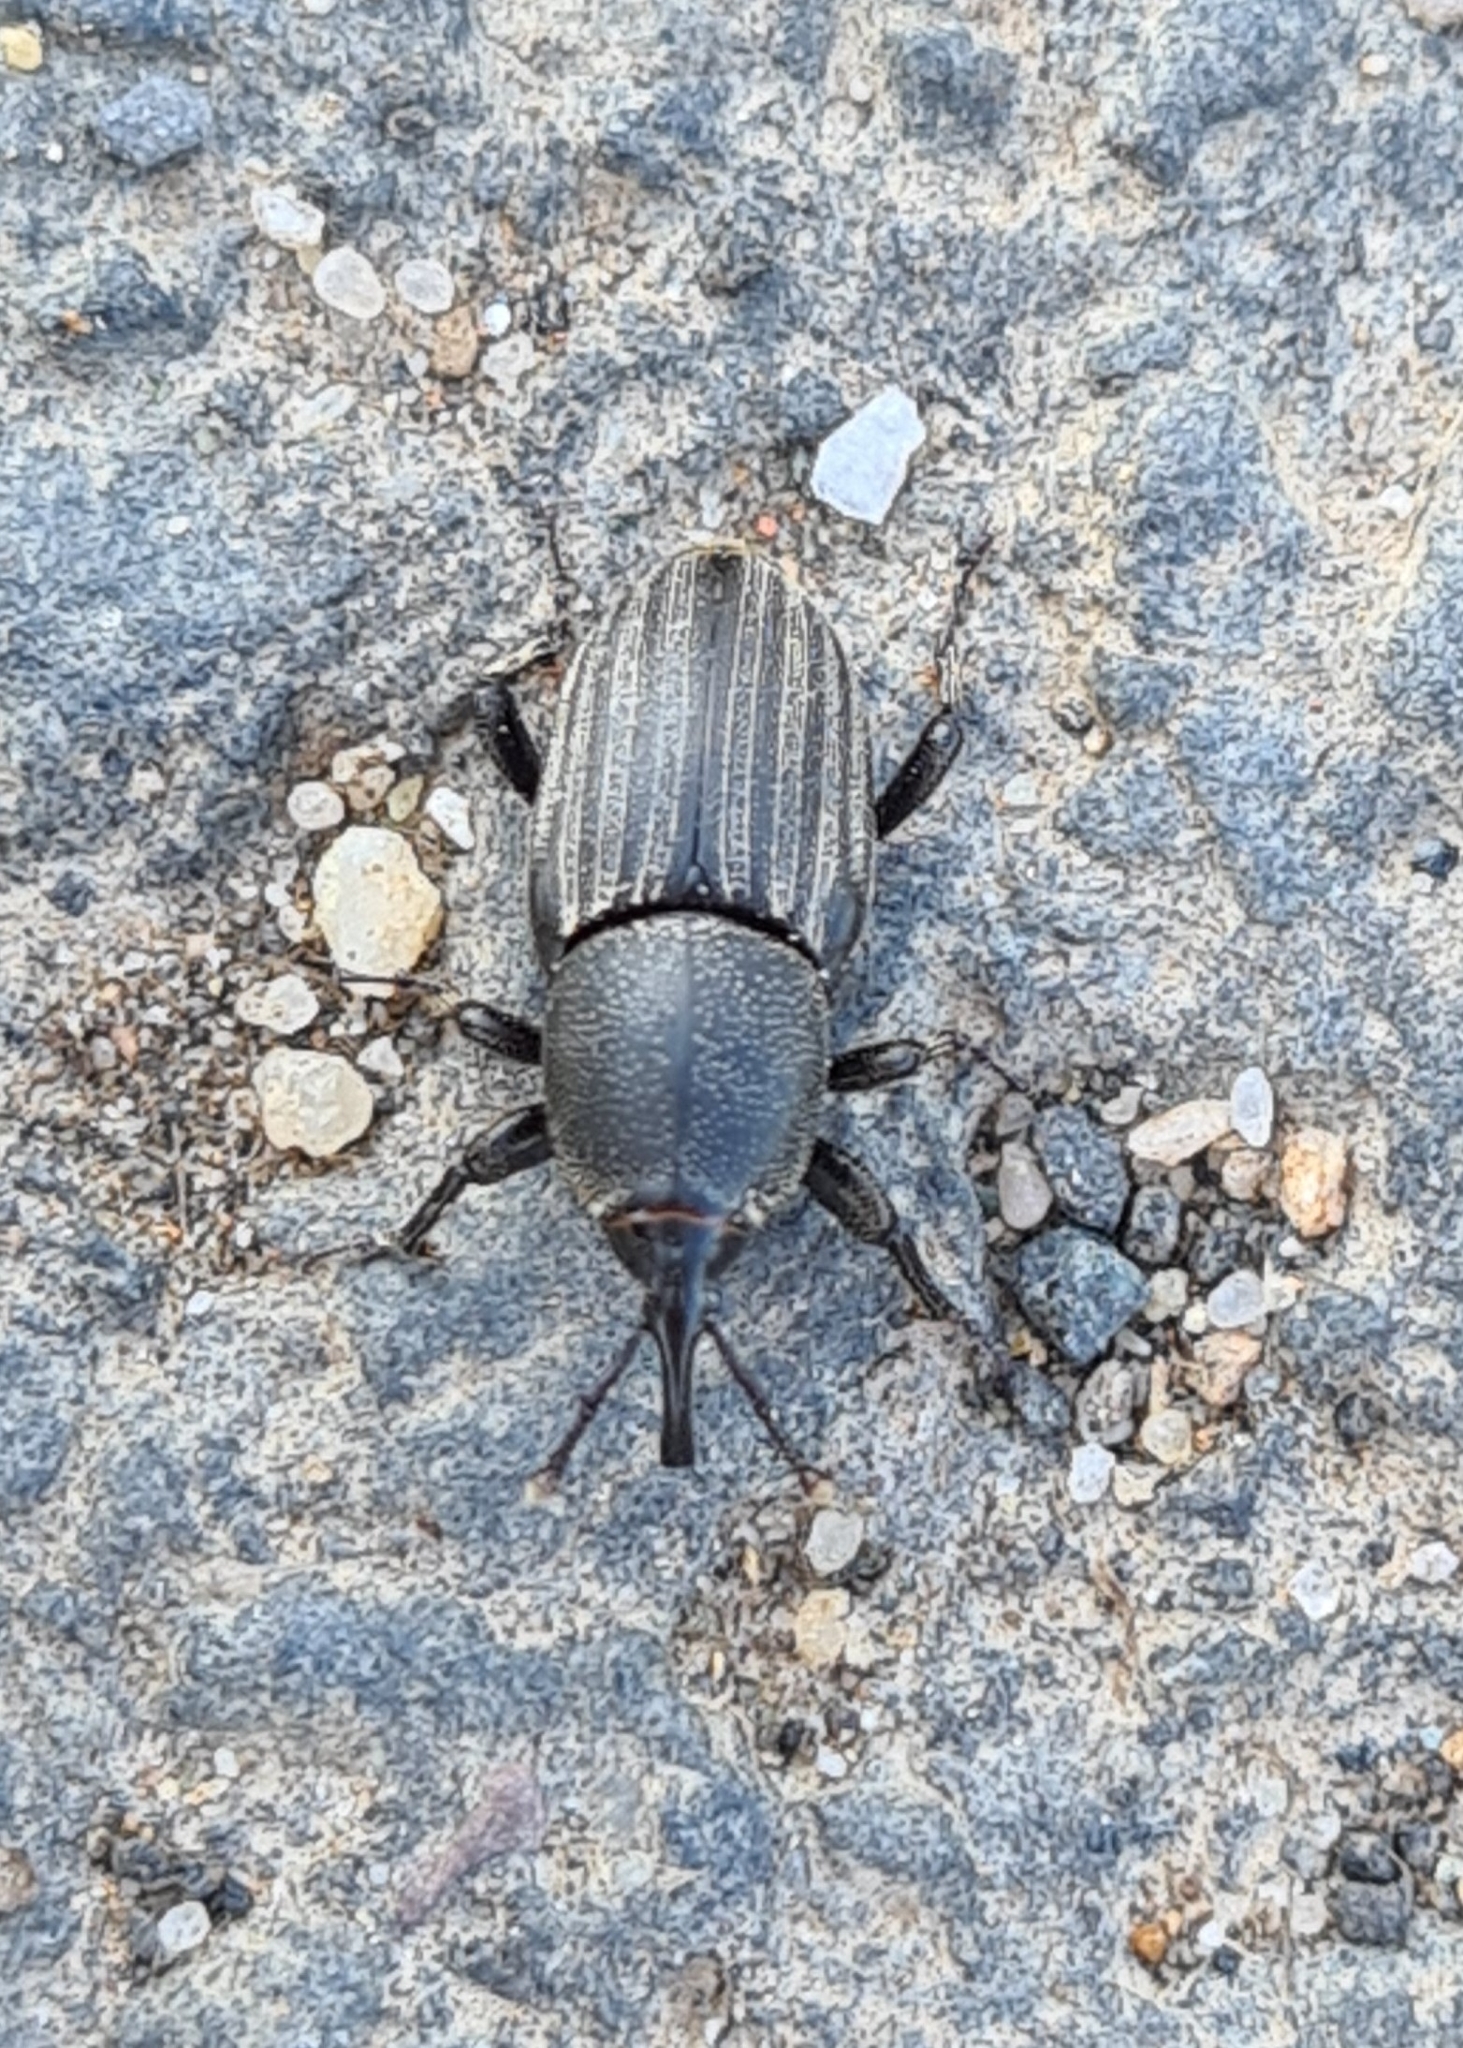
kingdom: Animalia
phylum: Arthropoda
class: Insecta
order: Coleoptera
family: Dryophthoridae
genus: Sphenophorus
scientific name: Sphenophorus striatopunctatus
